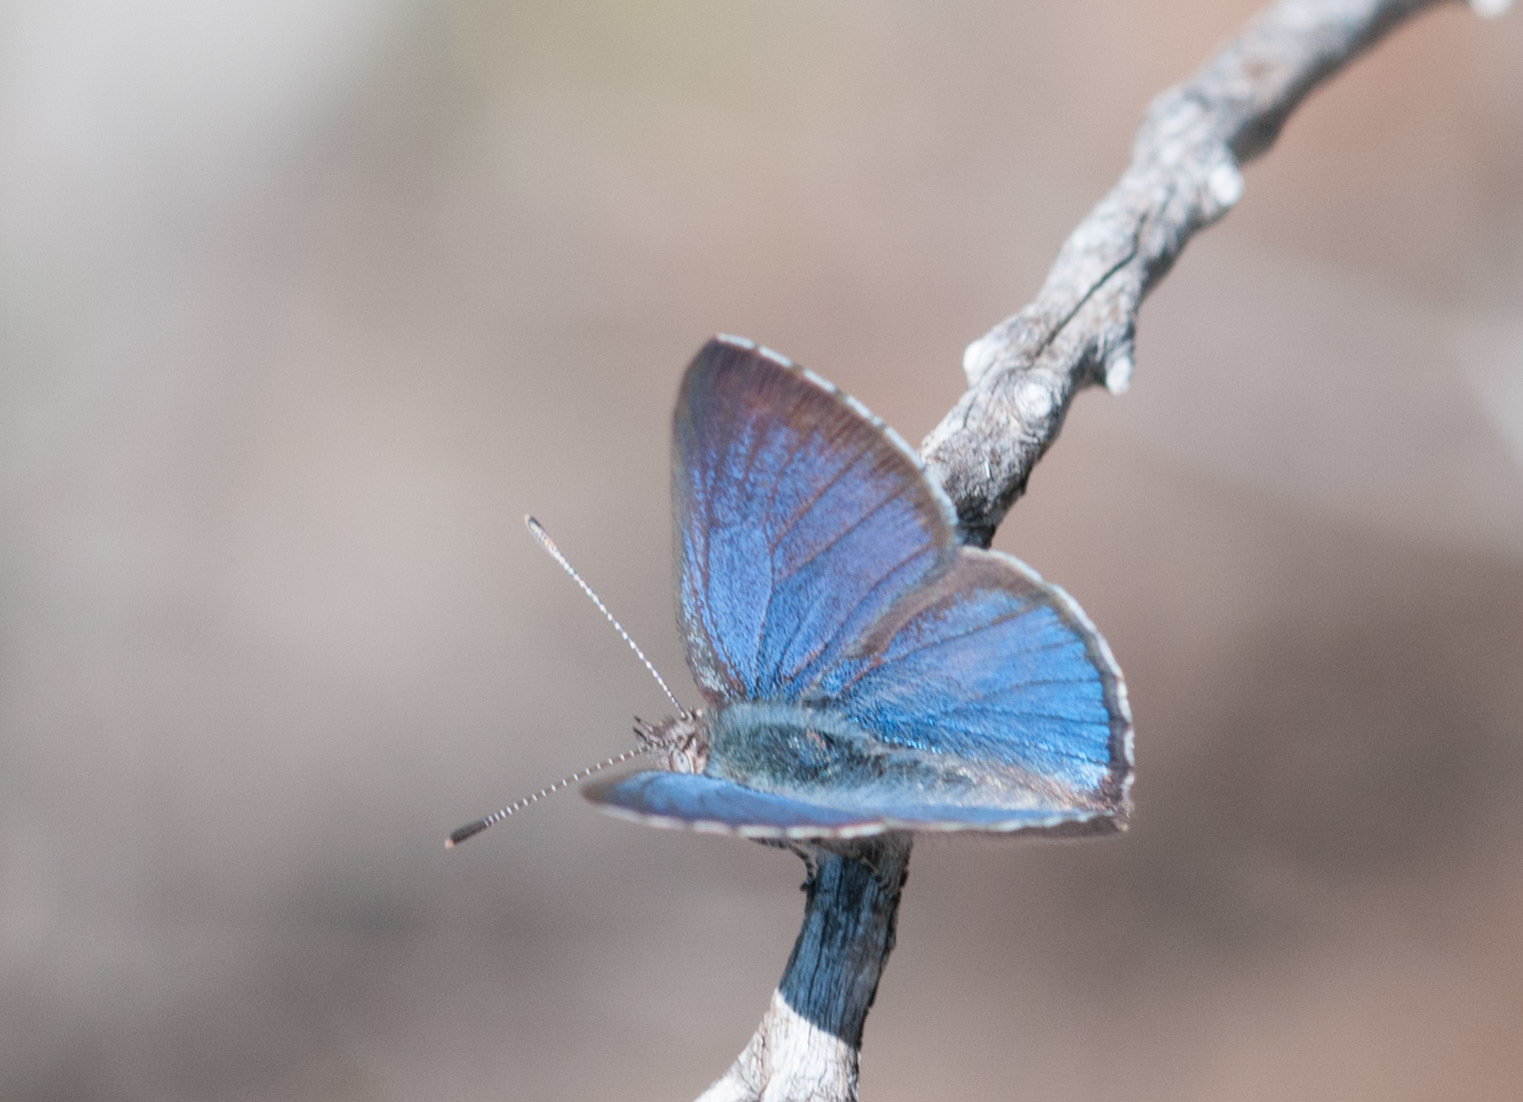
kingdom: Animalia
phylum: Arthropoda
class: Insecta
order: Lepidoptera
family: Lycaenidae
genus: Candalides
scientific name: Candalides
